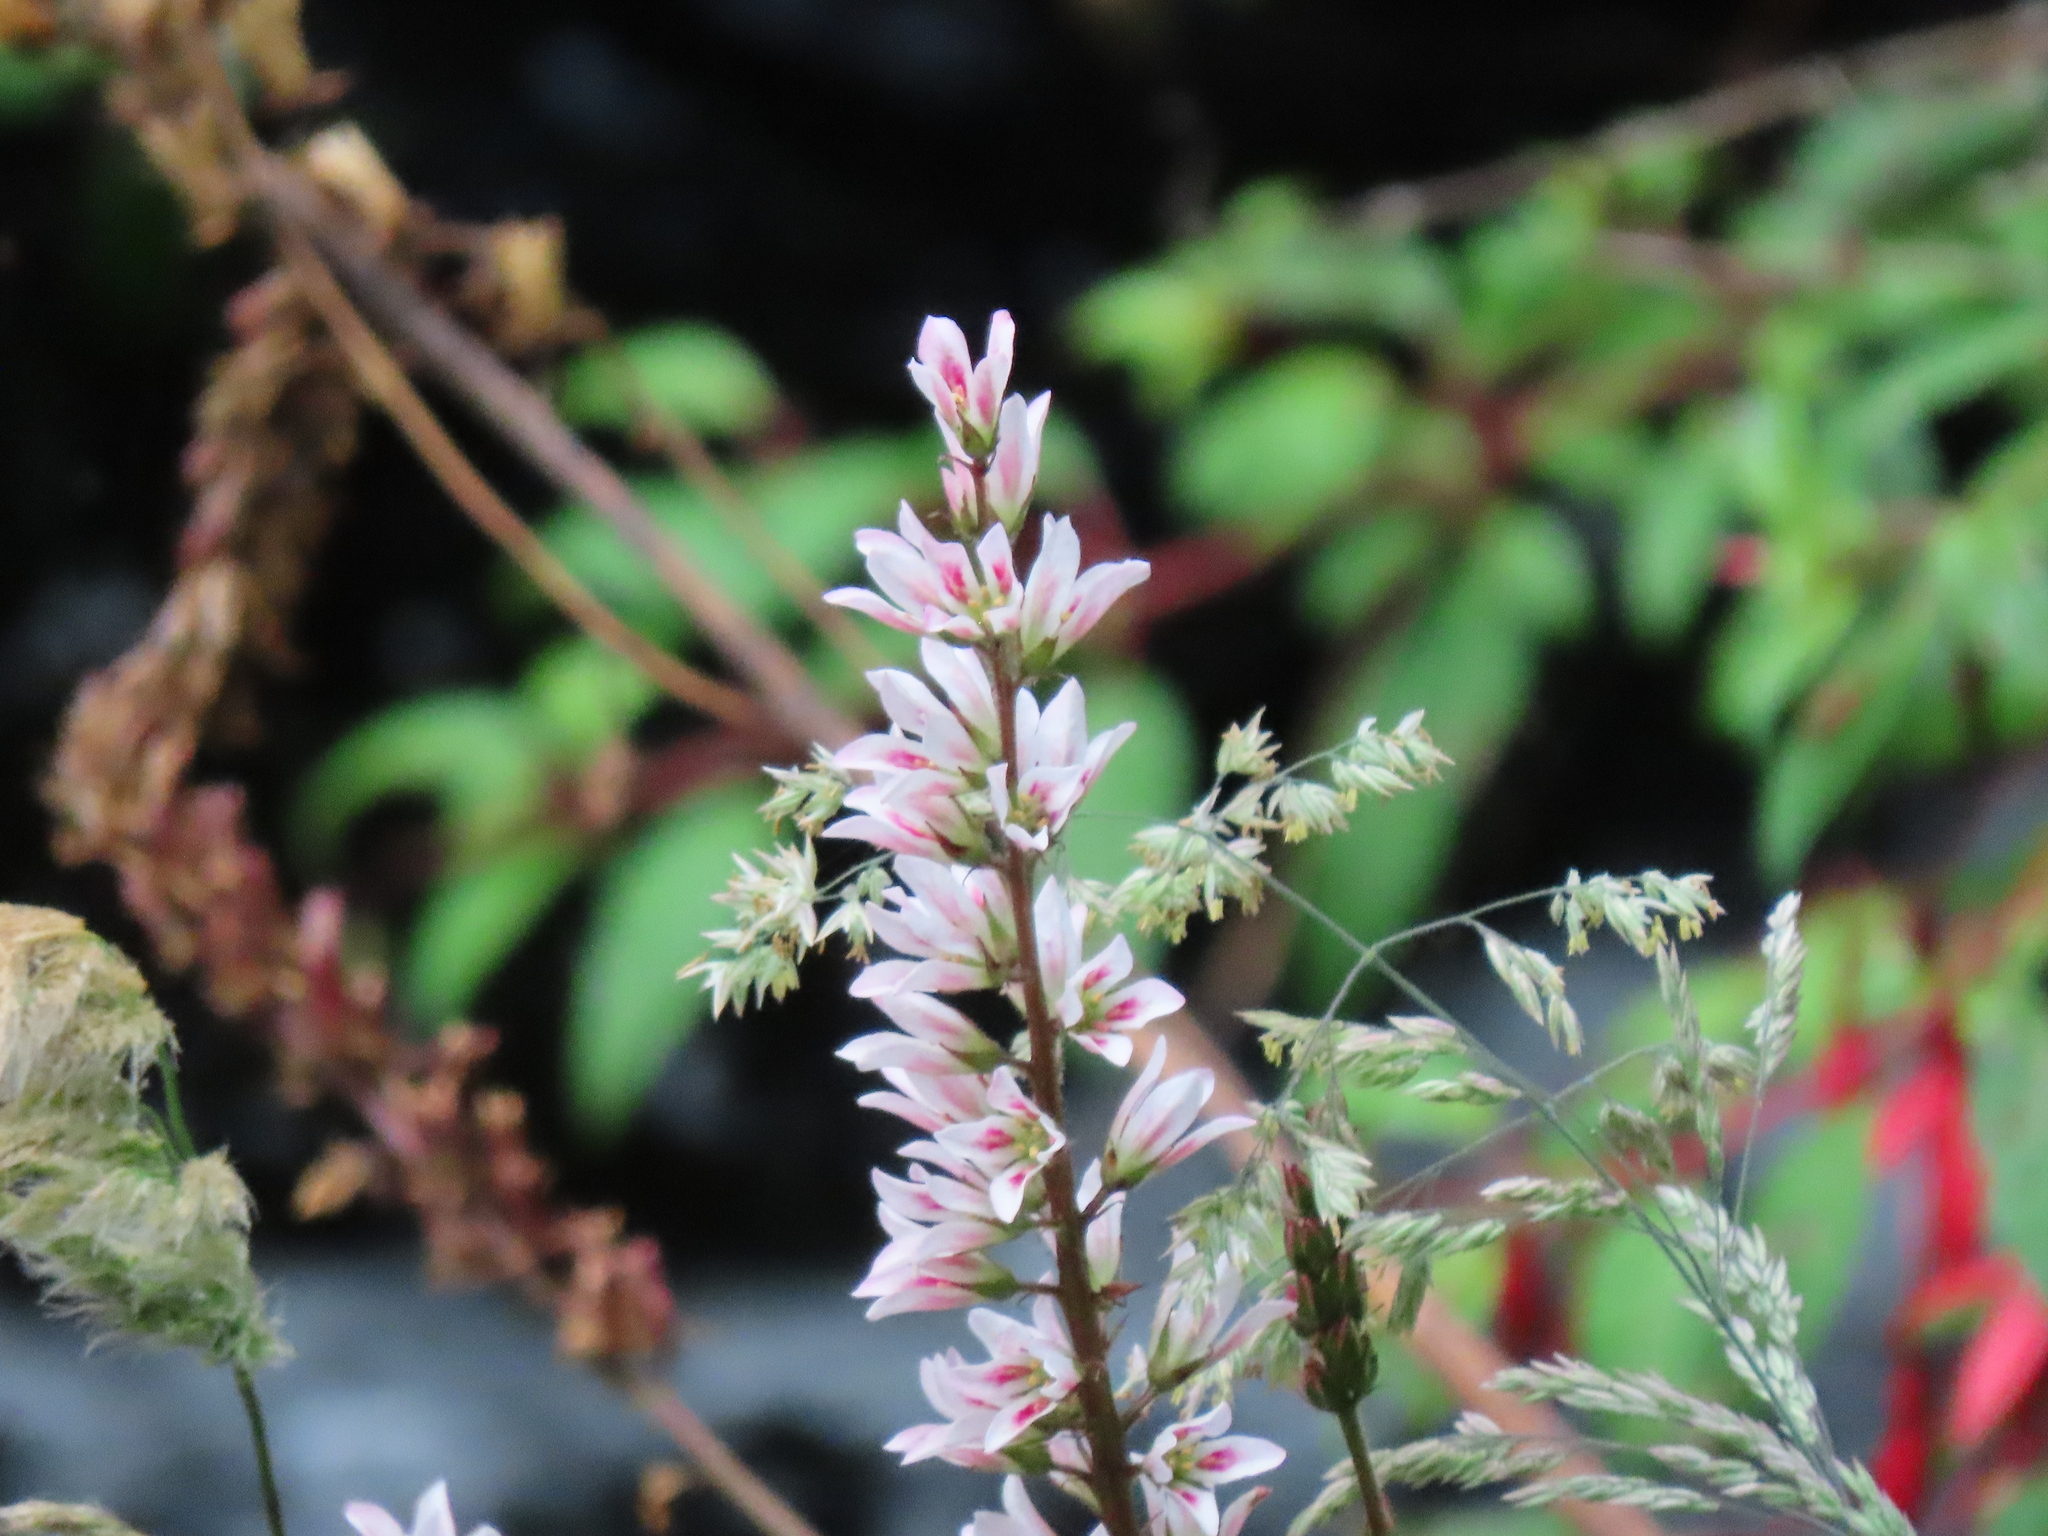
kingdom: Plantae
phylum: Tracheophyta
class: Magnoliopsida
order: Geraniales
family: Francoaceae
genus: Francoa
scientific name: Francoa appendiculata
